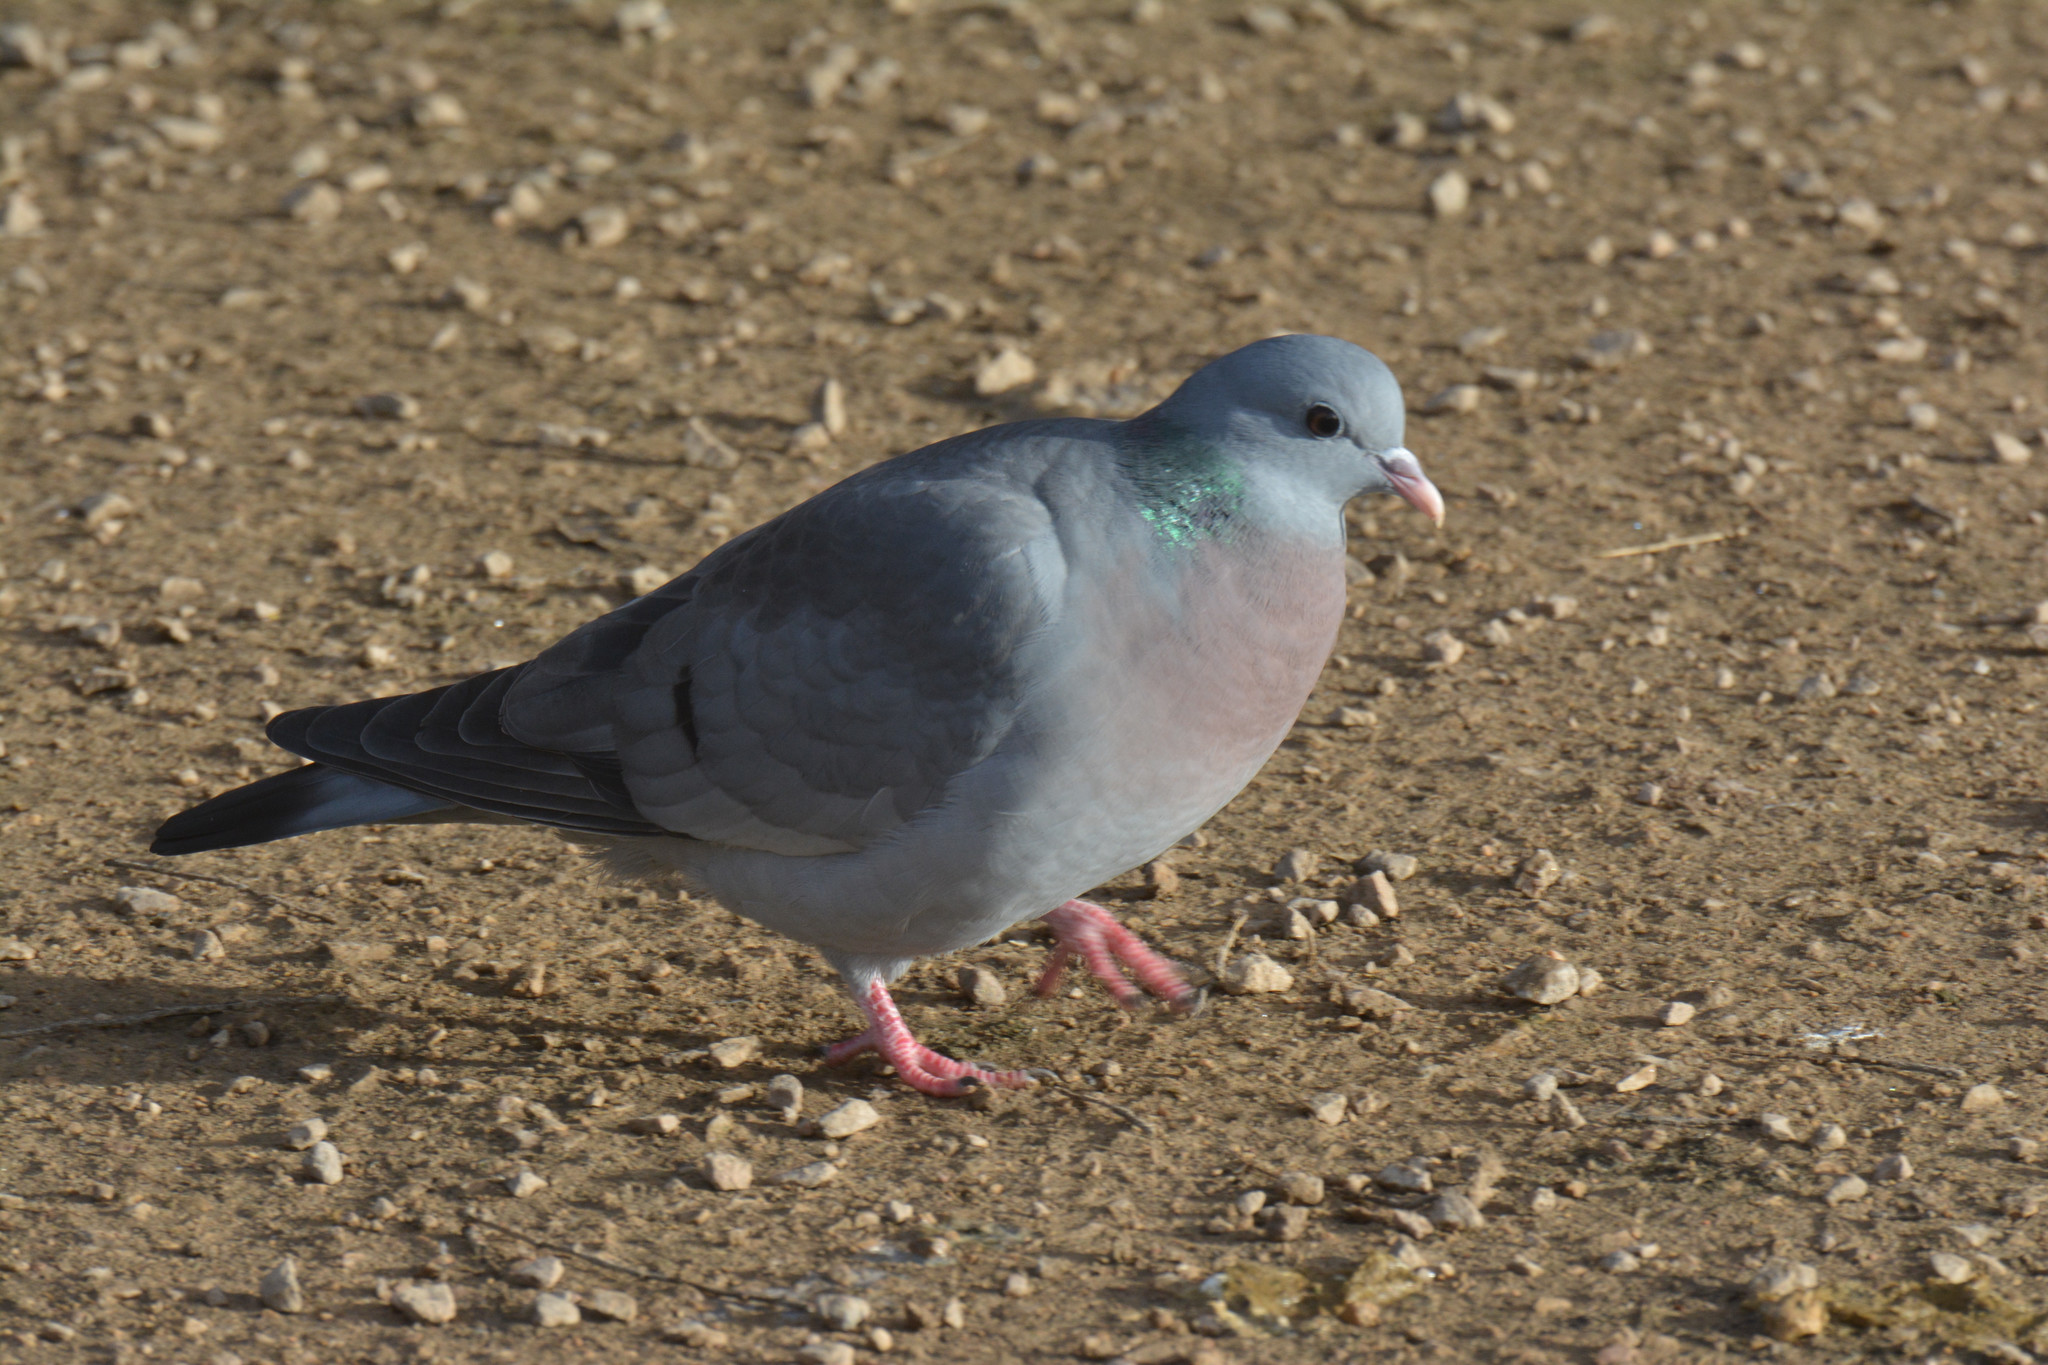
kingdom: Animalia
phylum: Chordata
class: Aves
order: Columbiformes
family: Columbidae
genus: Columba
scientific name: Columba oenas
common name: Stock dove
